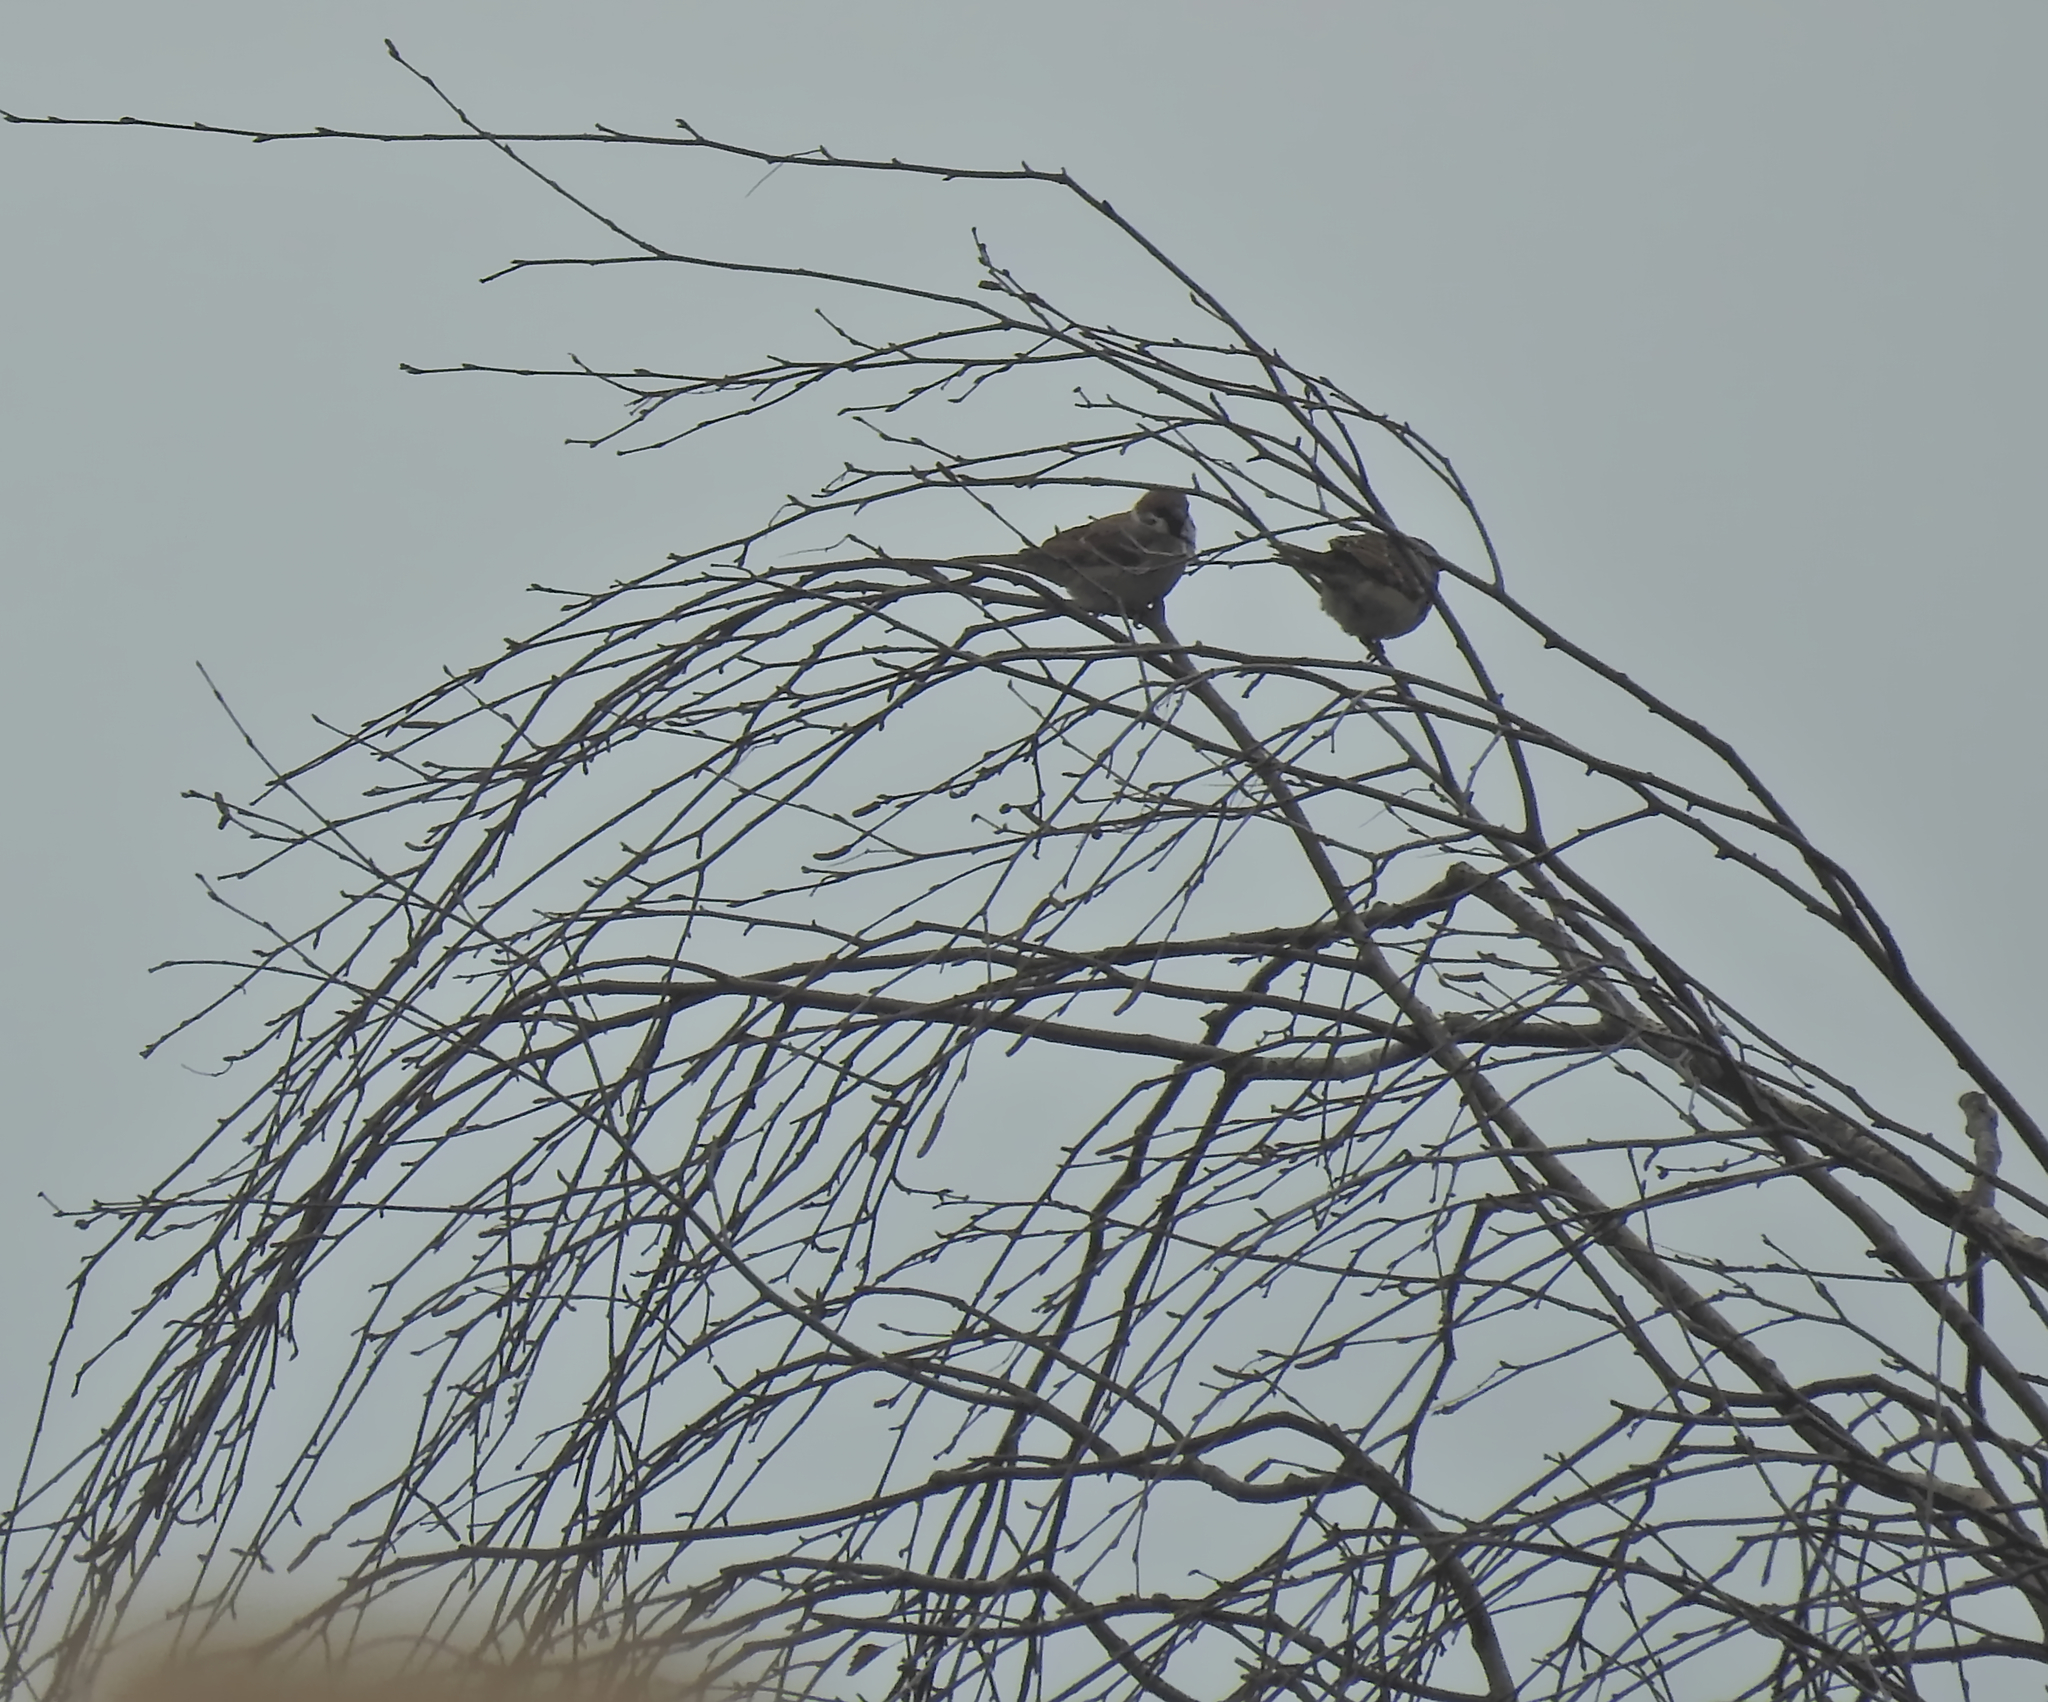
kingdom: Animalia
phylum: Chordata
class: Aves
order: Passeriformes
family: Passeridae
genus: Passer
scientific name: Passer montanus
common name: Eurasian tree sparrow
